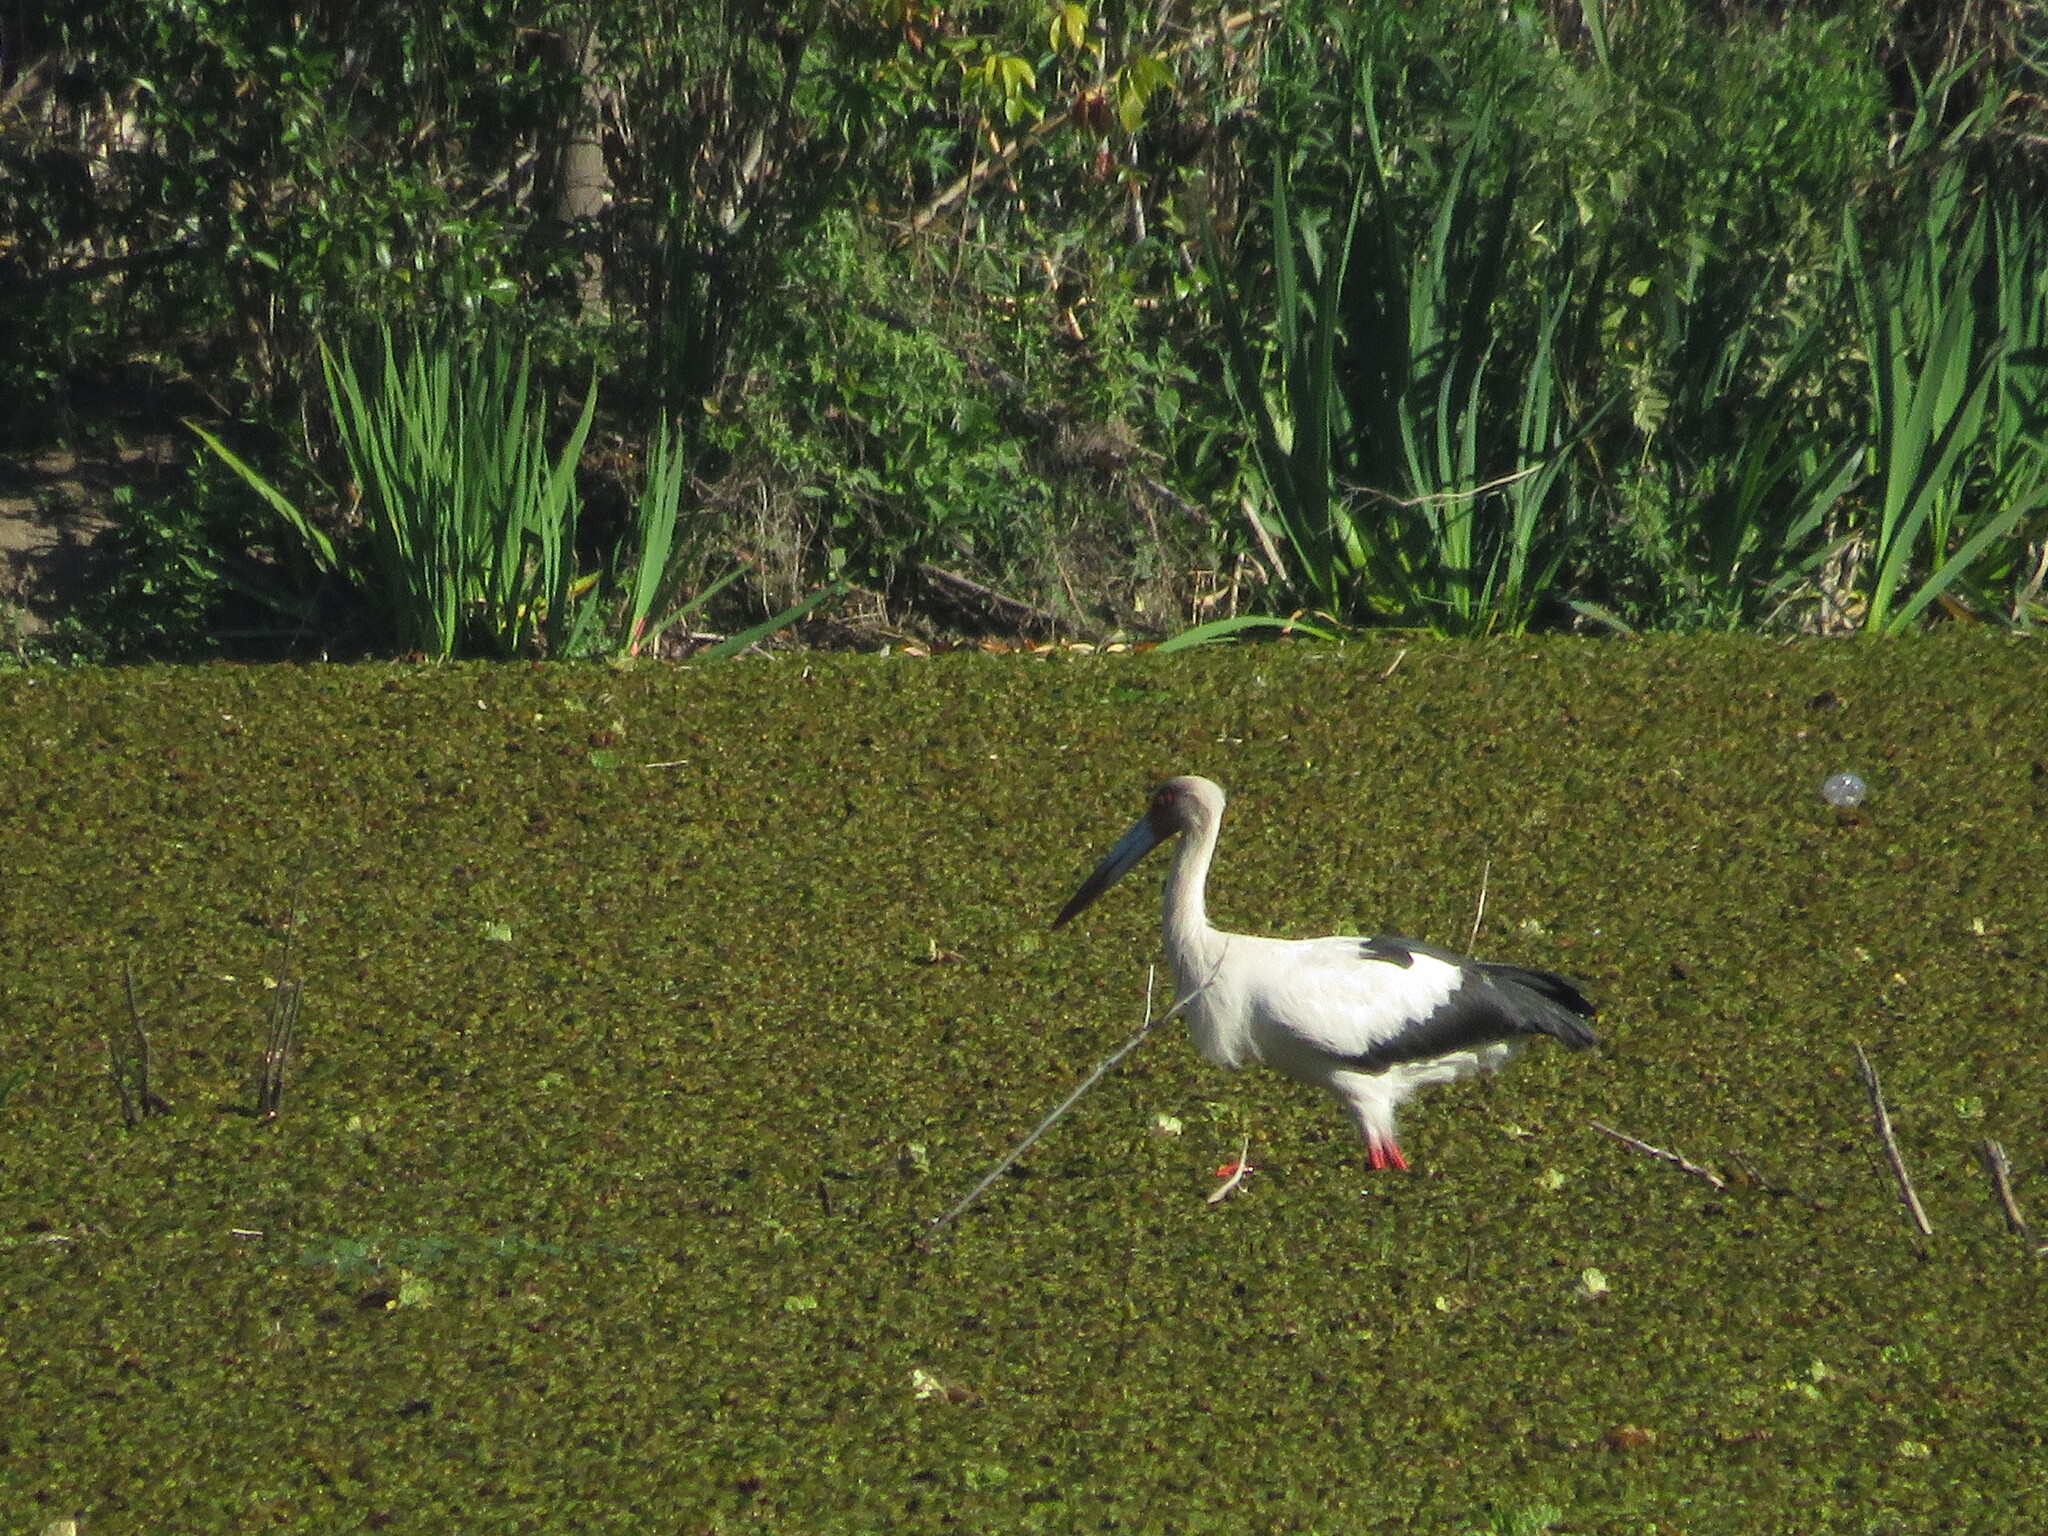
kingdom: Animalia
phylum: Chordata
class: Aves
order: Ciconiiformes
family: Ciconiidae
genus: Ciconia
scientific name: Ciconia maguari
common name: Maguari stork
